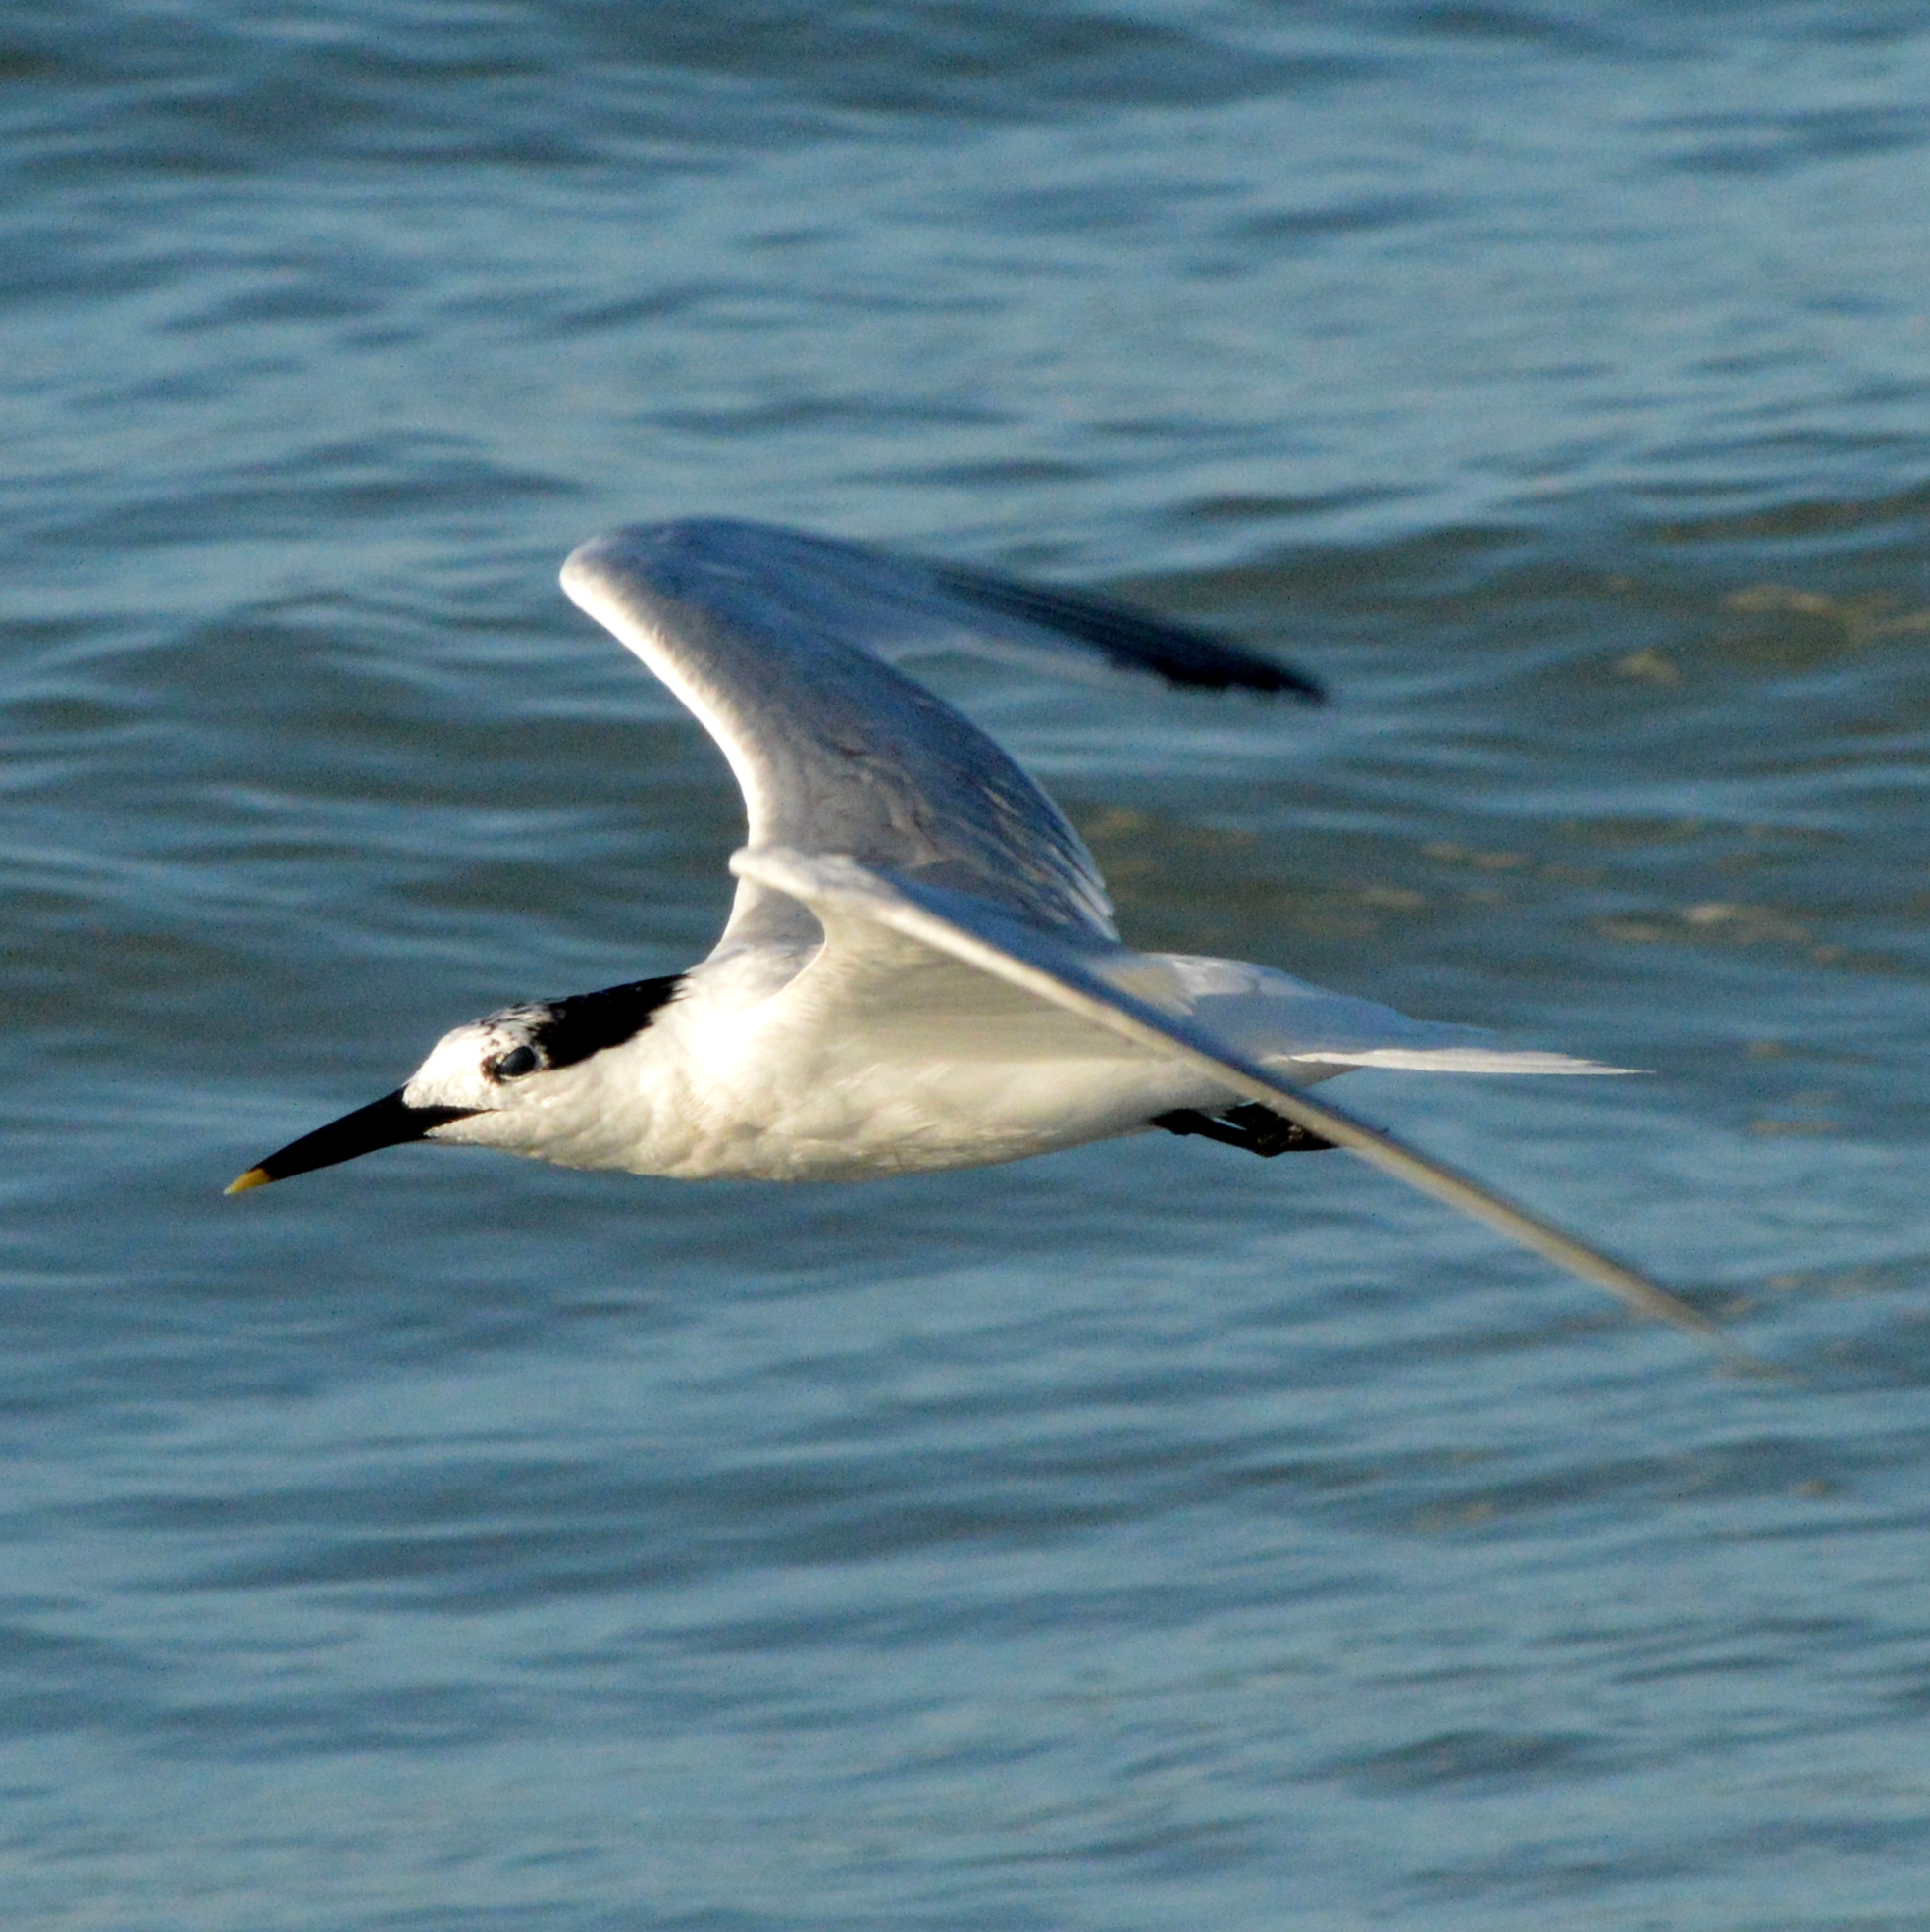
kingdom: Animalia
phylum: Chordata
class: Aves
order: Charadriiformes
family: Laridae
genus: Thalasseus
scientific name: Thalasseus sandvicensis
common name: Sandwich tern
